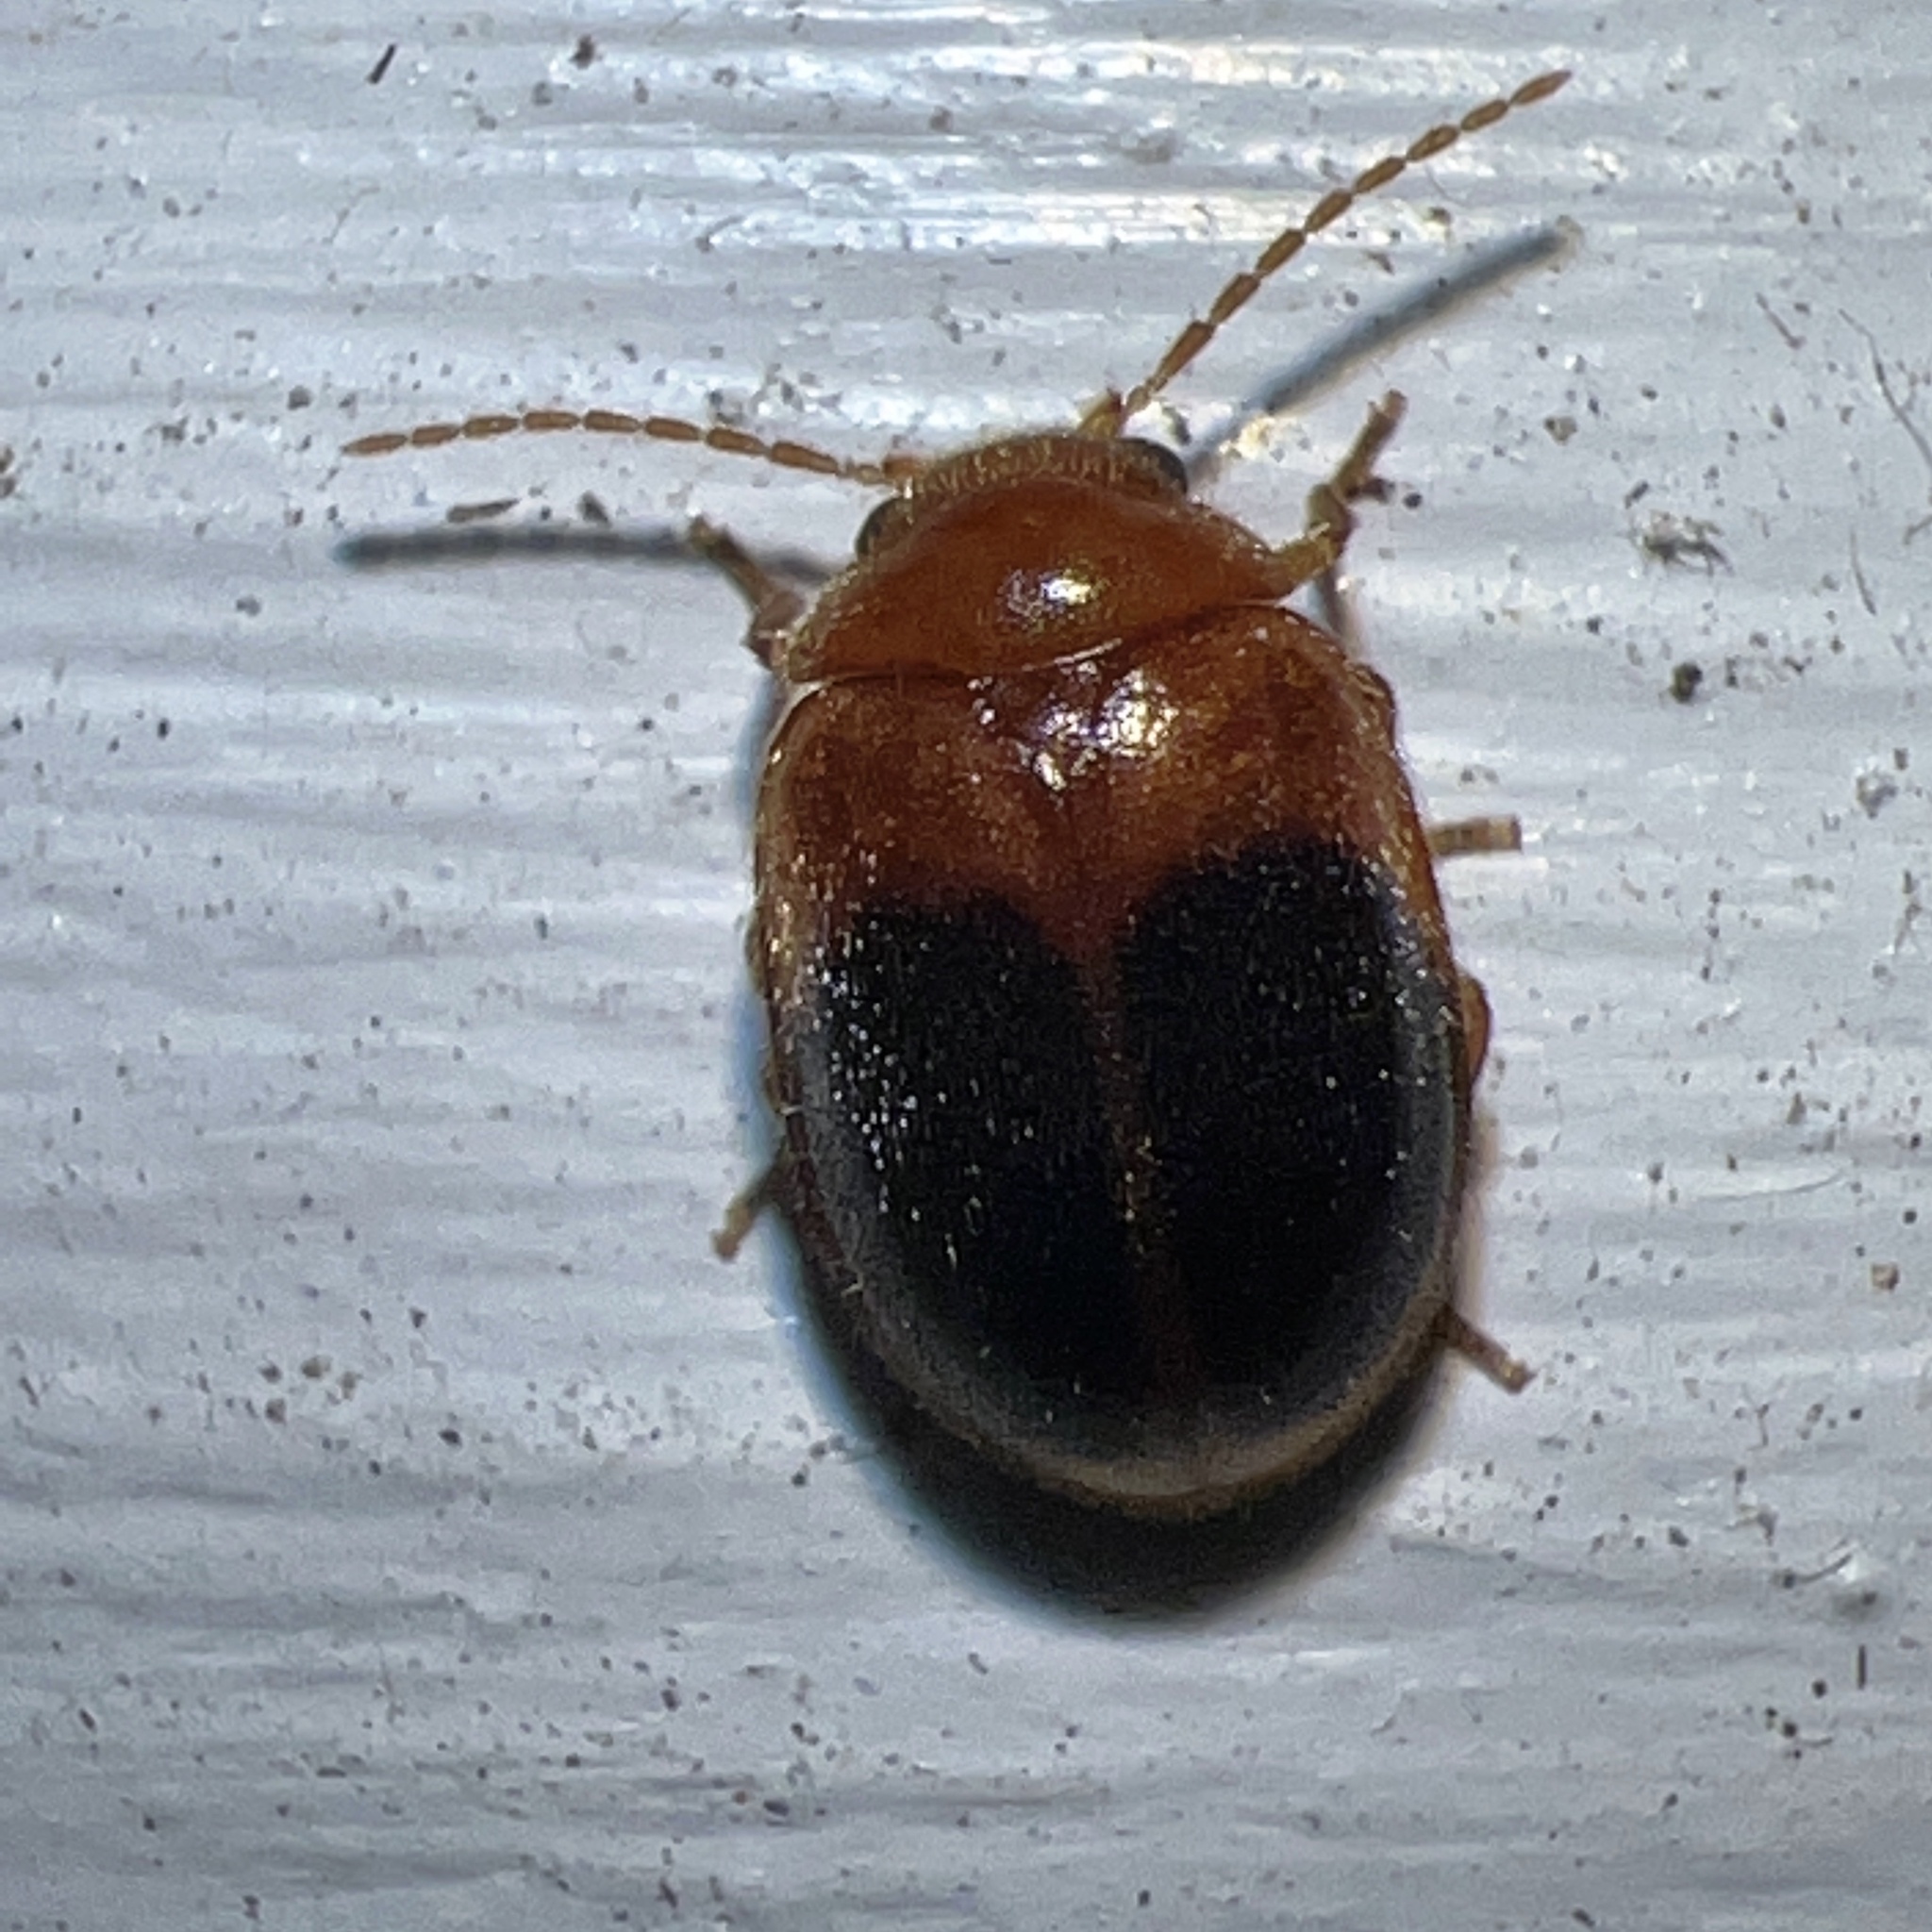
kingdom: Animalia
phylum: Arthropoda
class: Insecta
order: Coleoptera
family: Scirtidae
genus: Prionocyphon
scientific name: Prionocyphon discoideus
